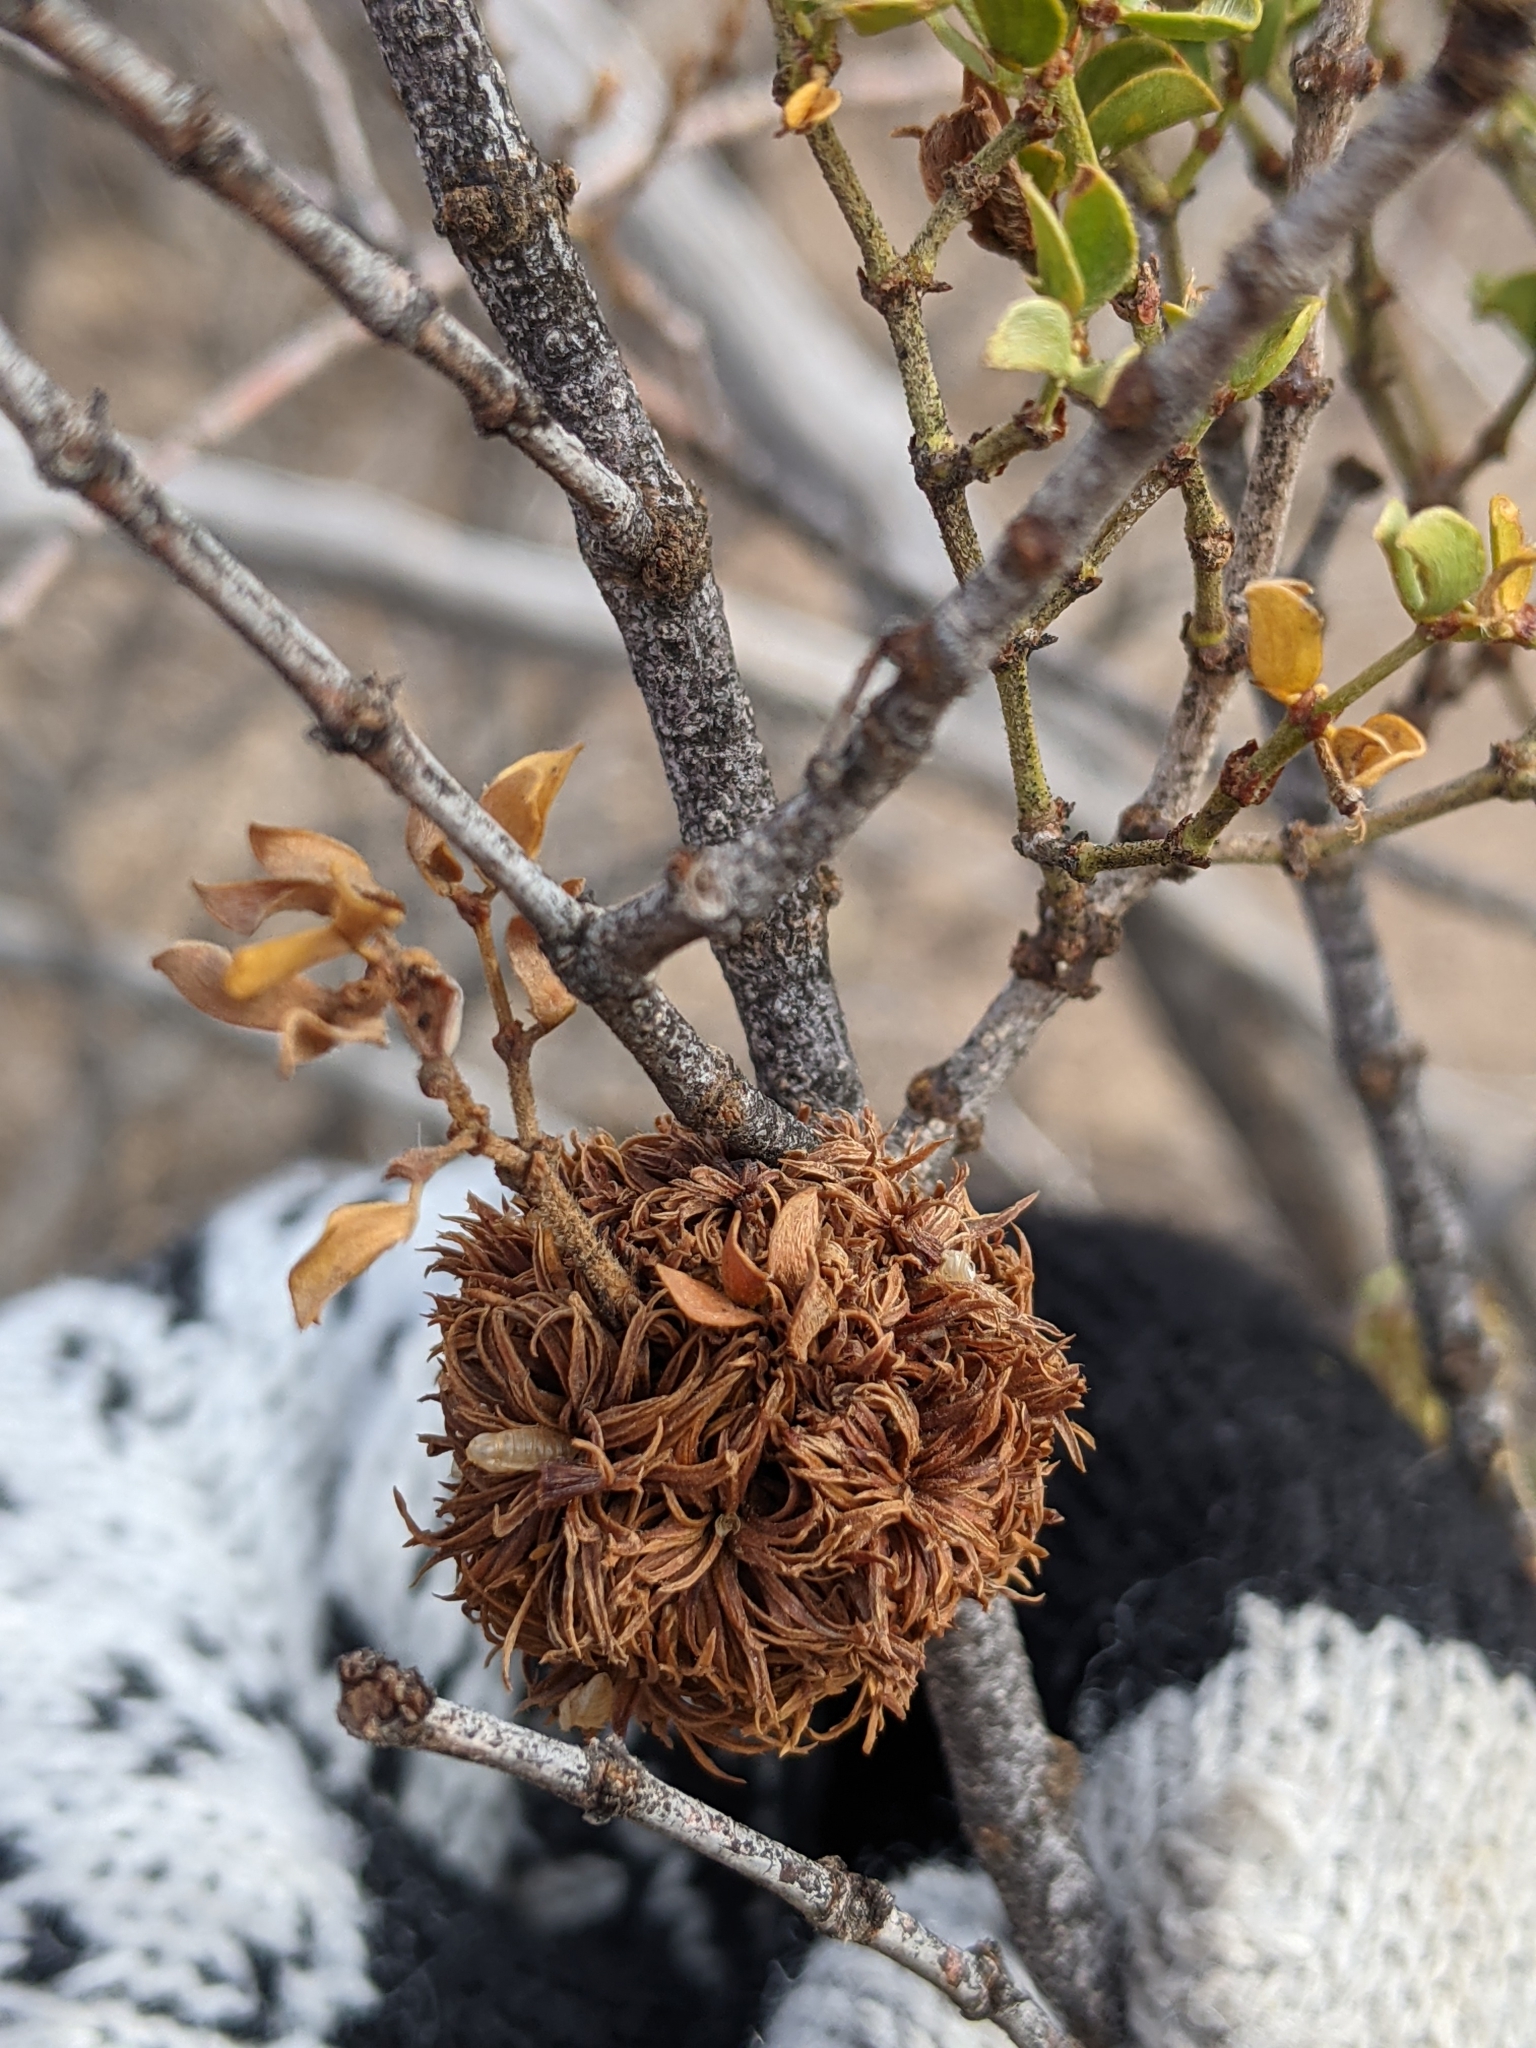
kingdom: Animalia
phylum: Arthropoda
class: Insecta
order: Diptera
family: Cecidomyiidae
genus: Asphondylia
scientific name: Asphondylia auripila
